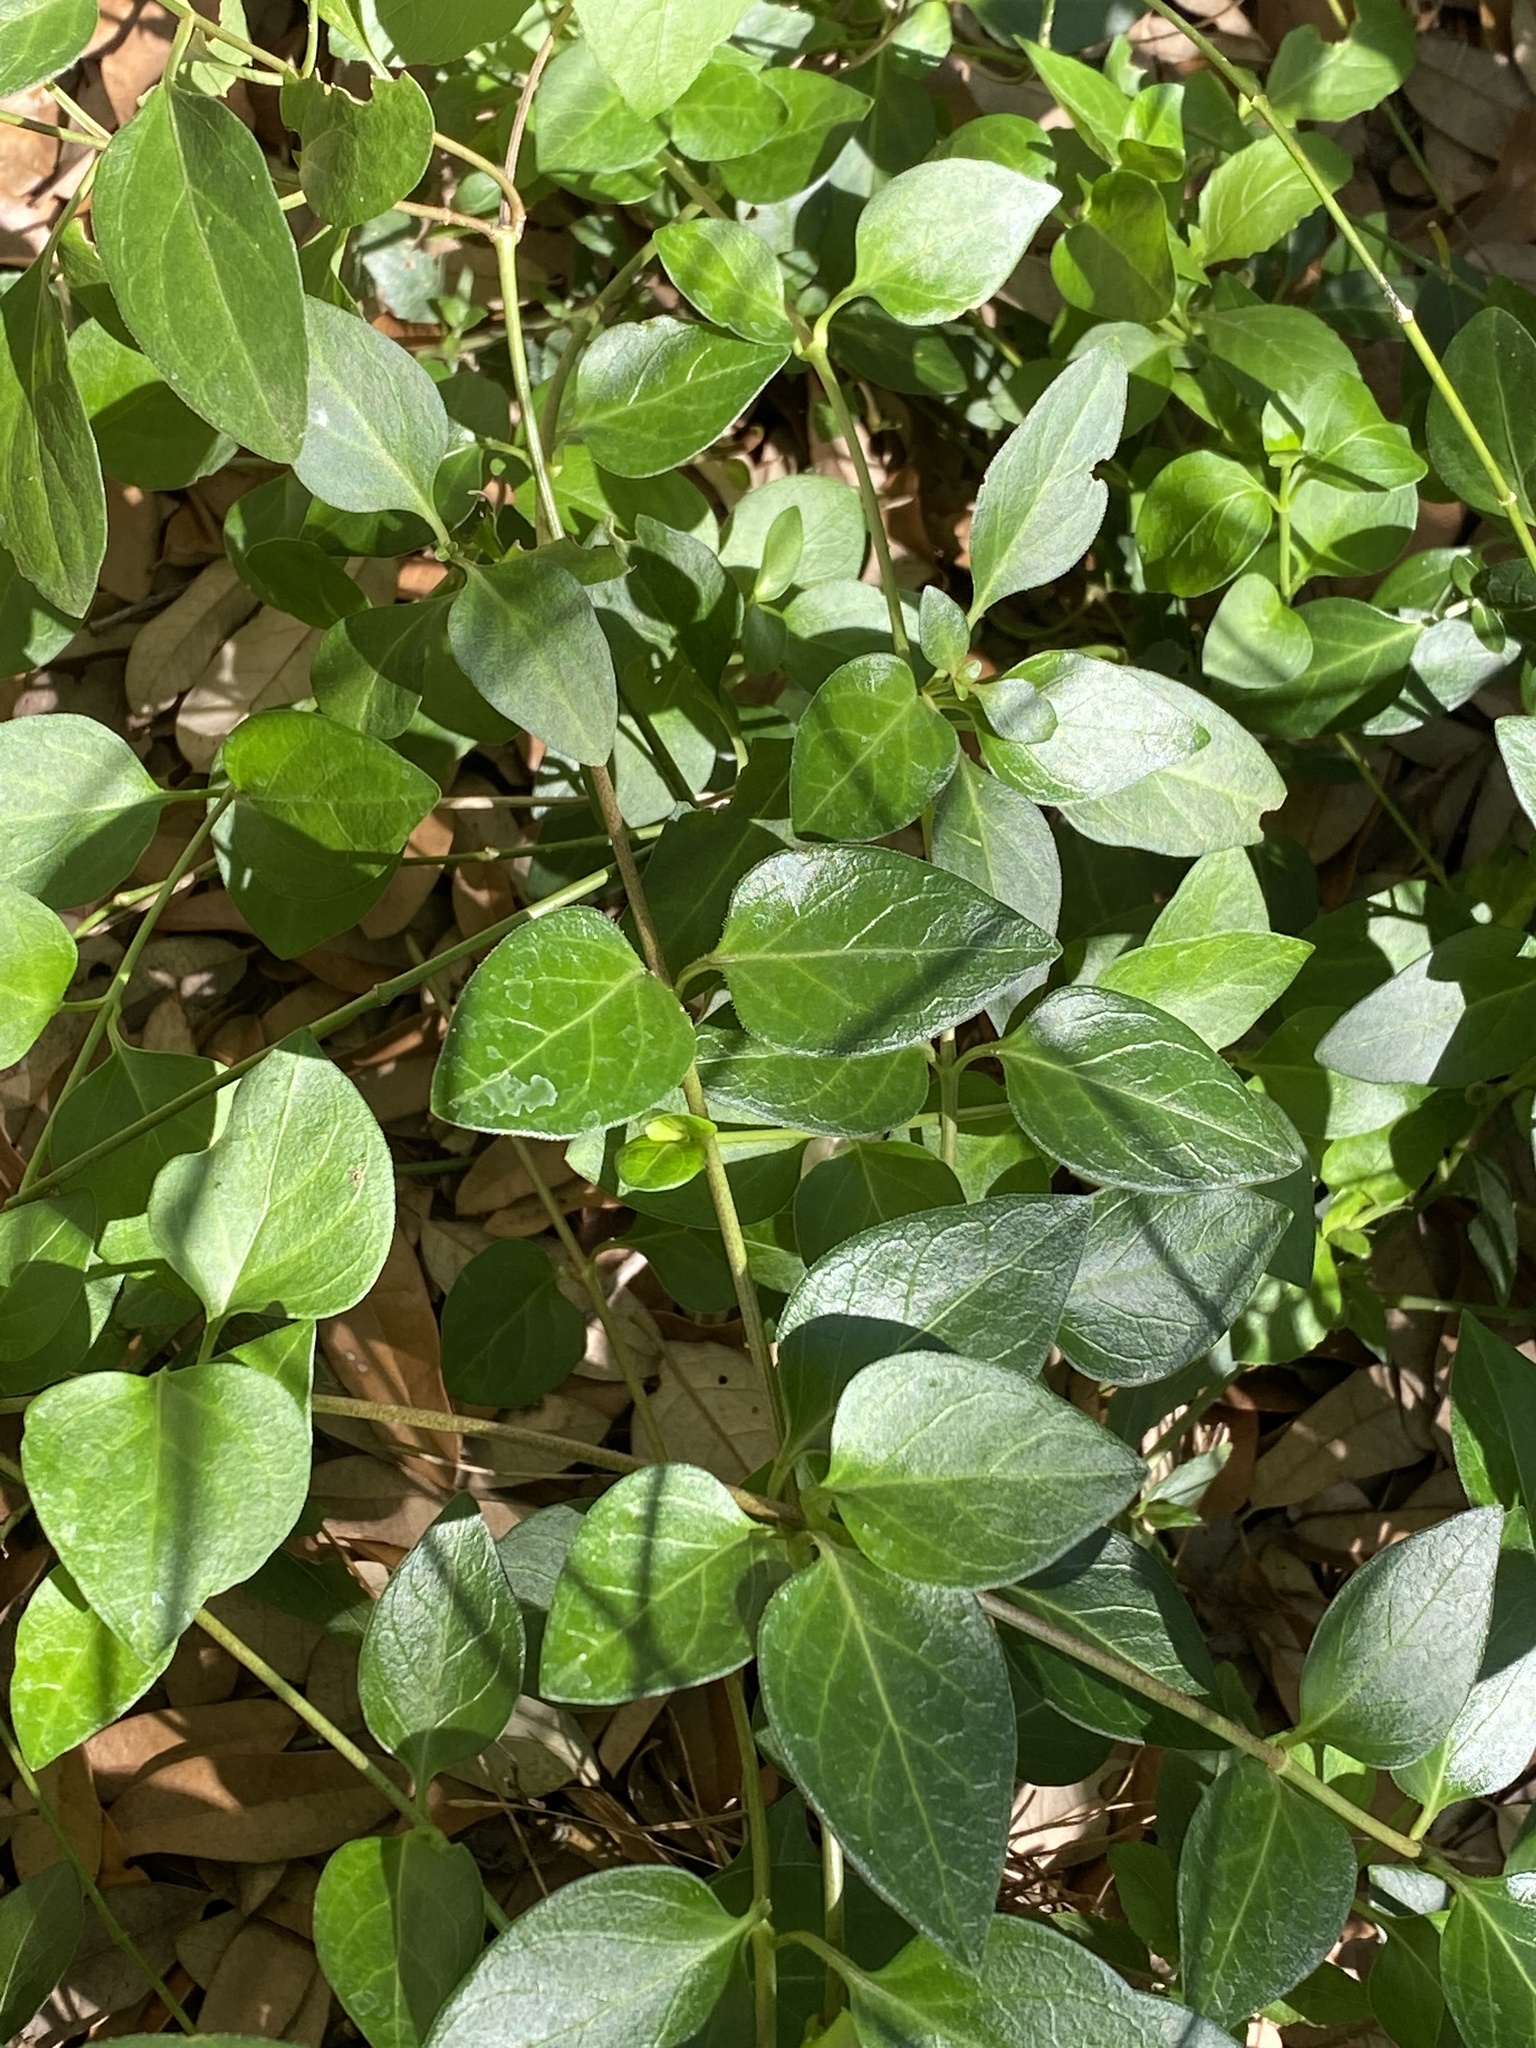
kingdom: Plantae
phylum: Tracheophyta
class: Magnoliopsida
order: Gentianales
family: Apocynaceae
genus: Vinca
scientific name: Vinca major
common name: Greater periwinkle
